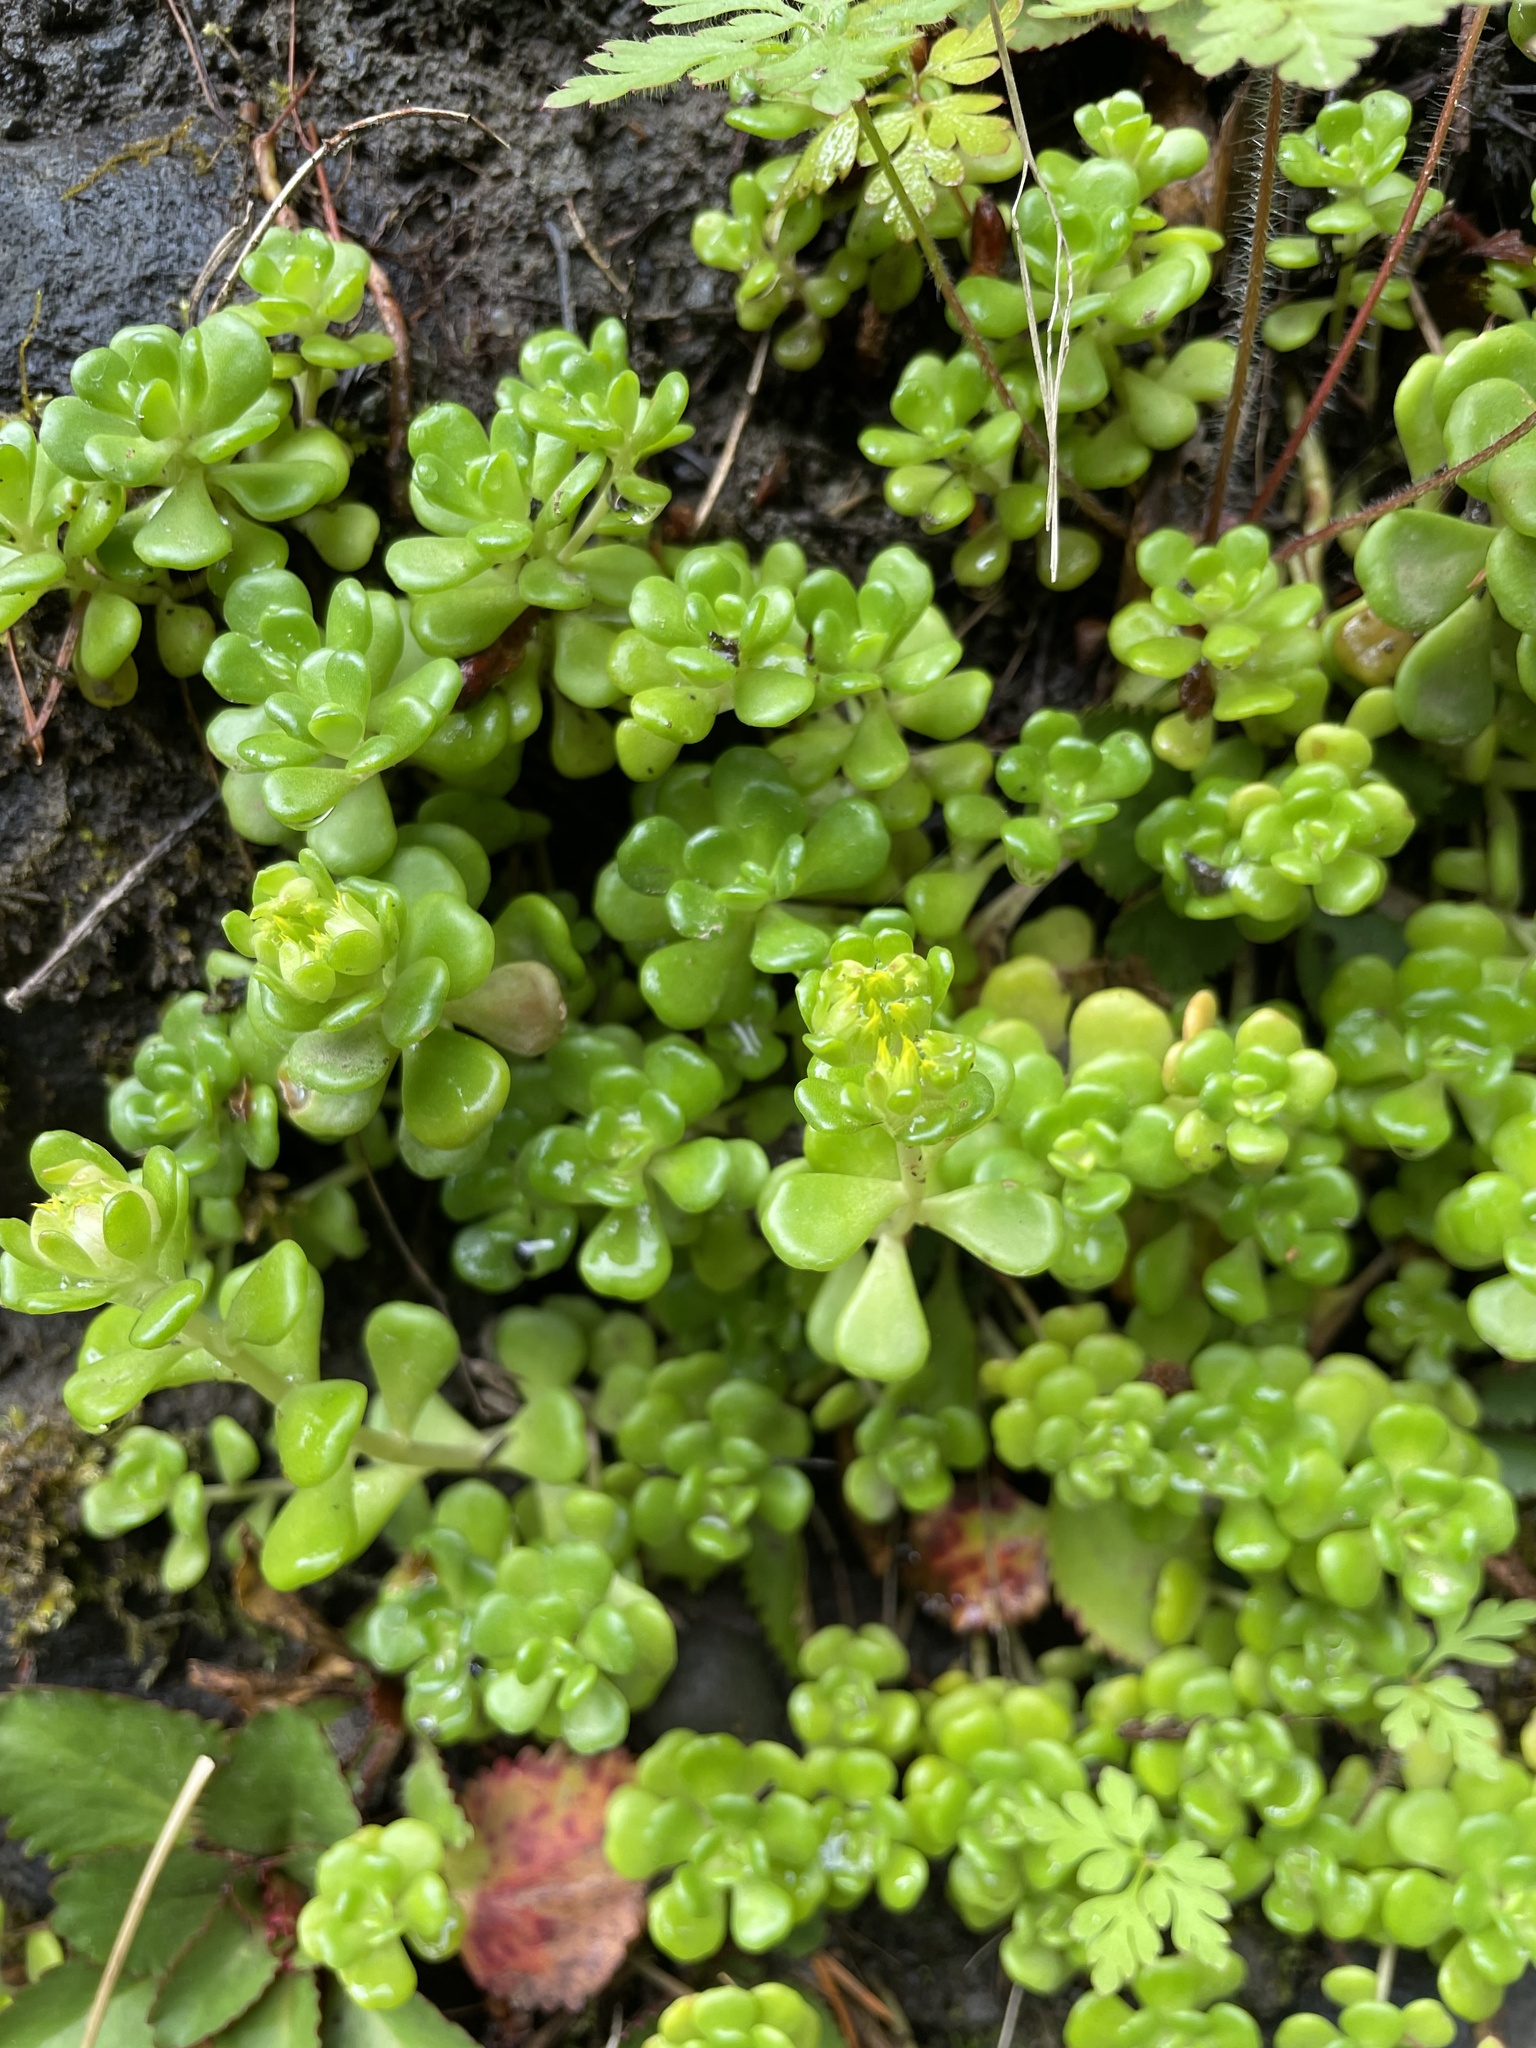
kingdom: Plantae
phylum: Tracheophyta
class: Magnoliopsida
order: Saxifragales
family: Crassulaceae
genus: Sedum
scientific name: Sedum oreganum
